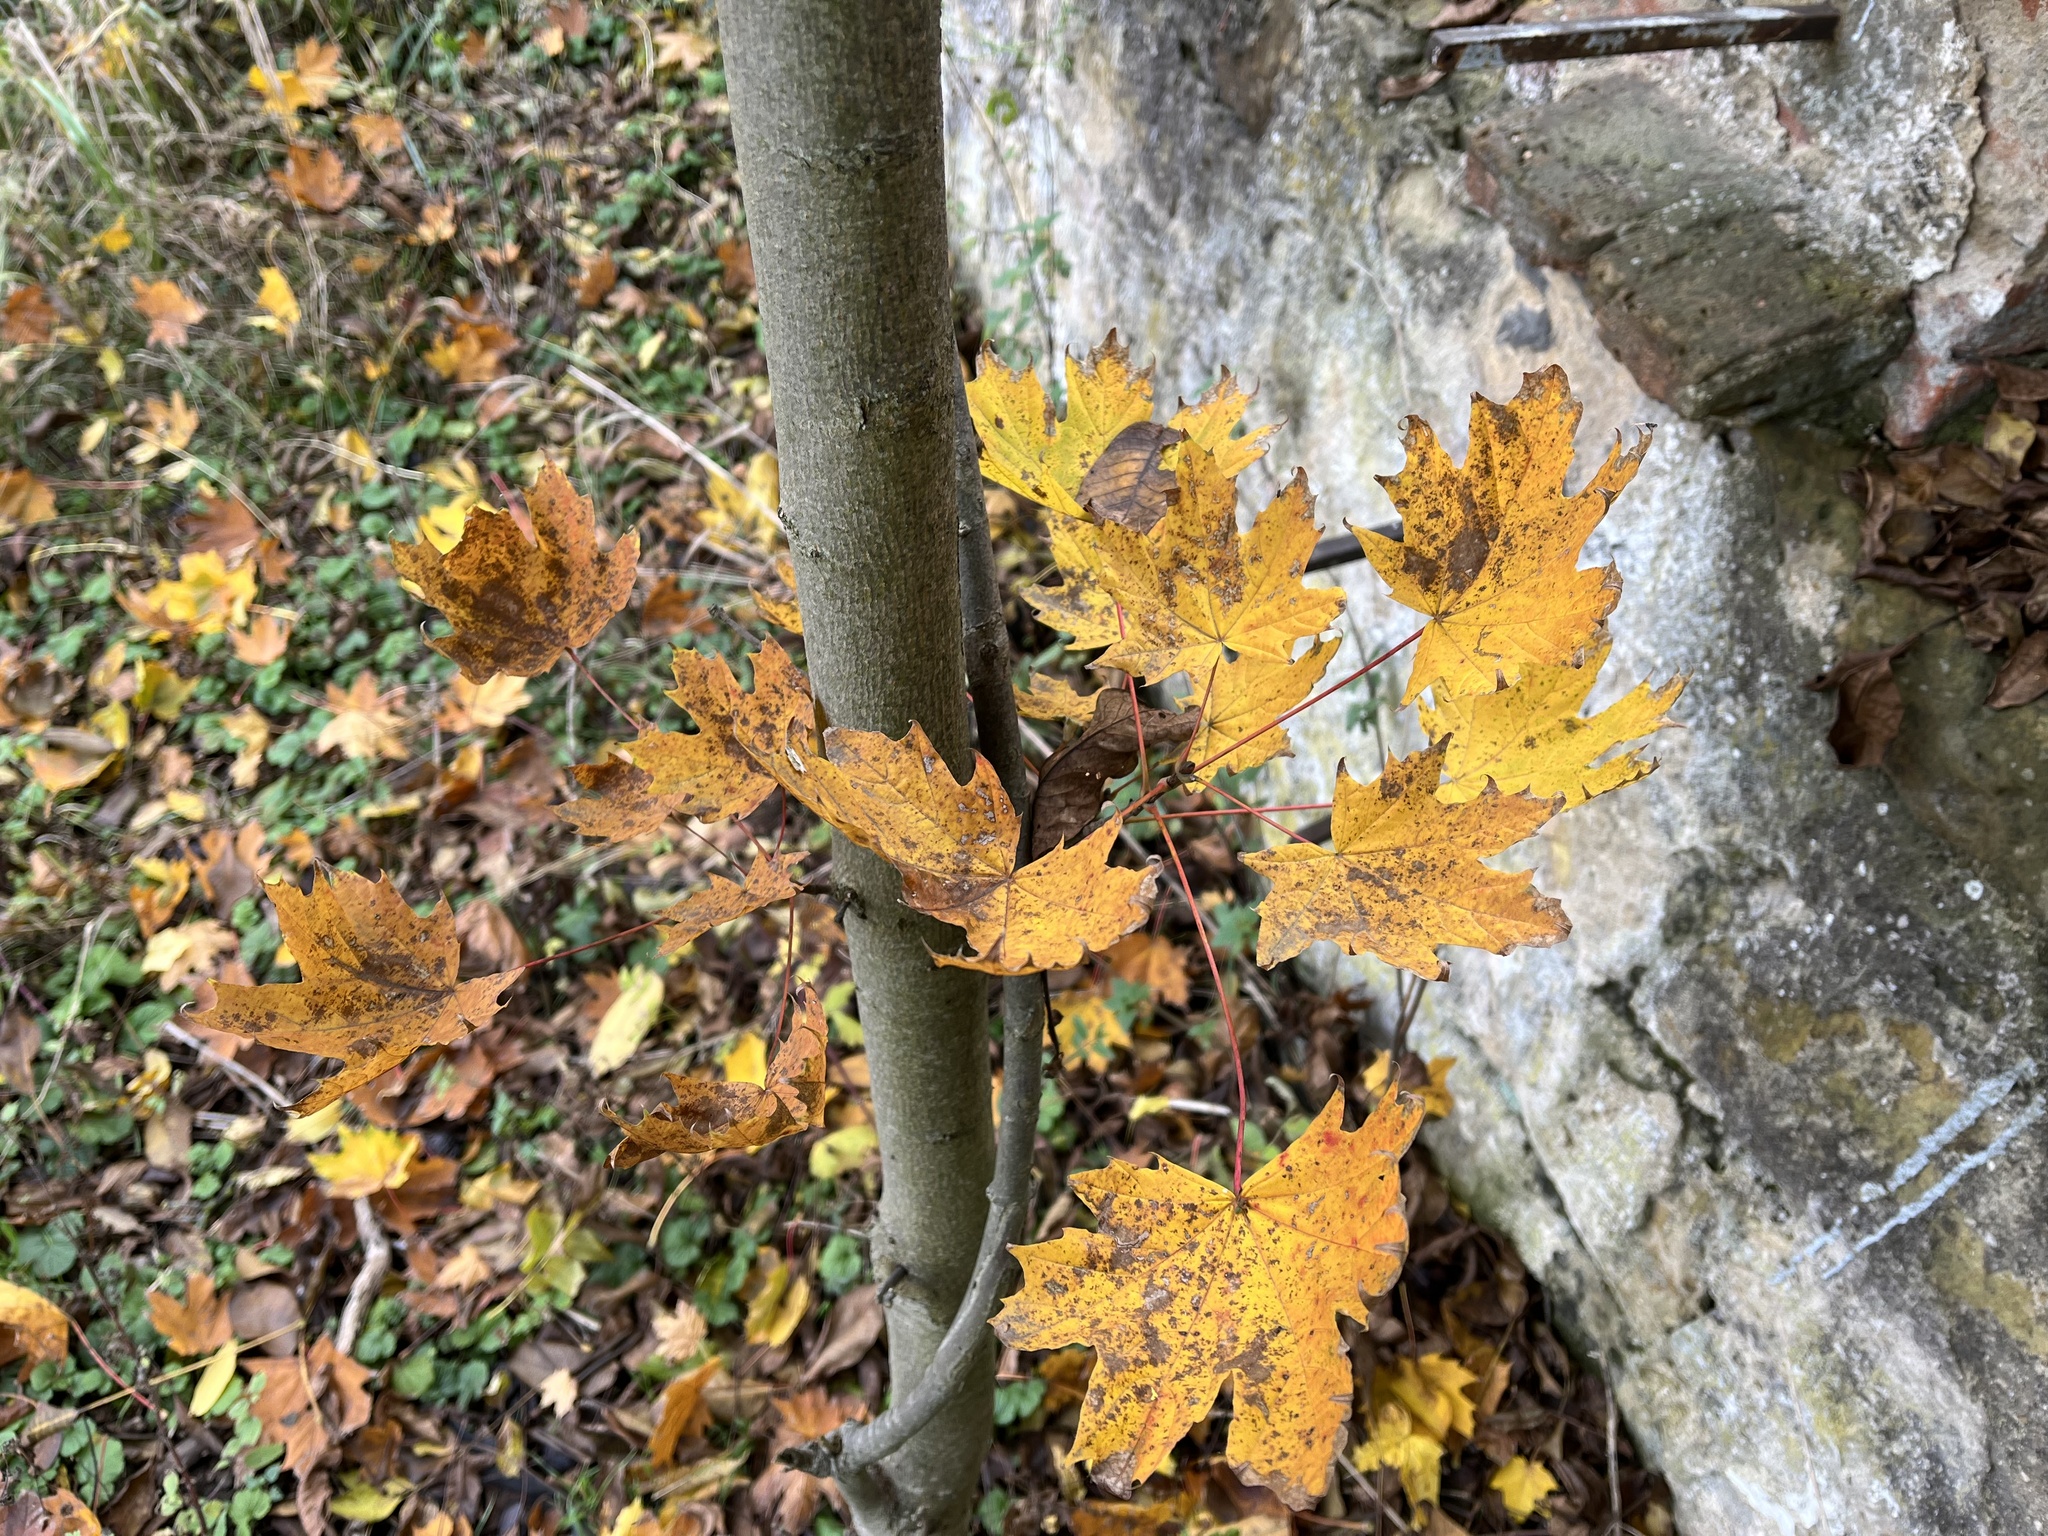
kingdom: Plantae
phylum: Tracheophyta
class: Magnoliopsida
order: Sapindales
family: Sapindaceae
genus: Acer
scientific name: Acer platanoides
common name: Norway maple
